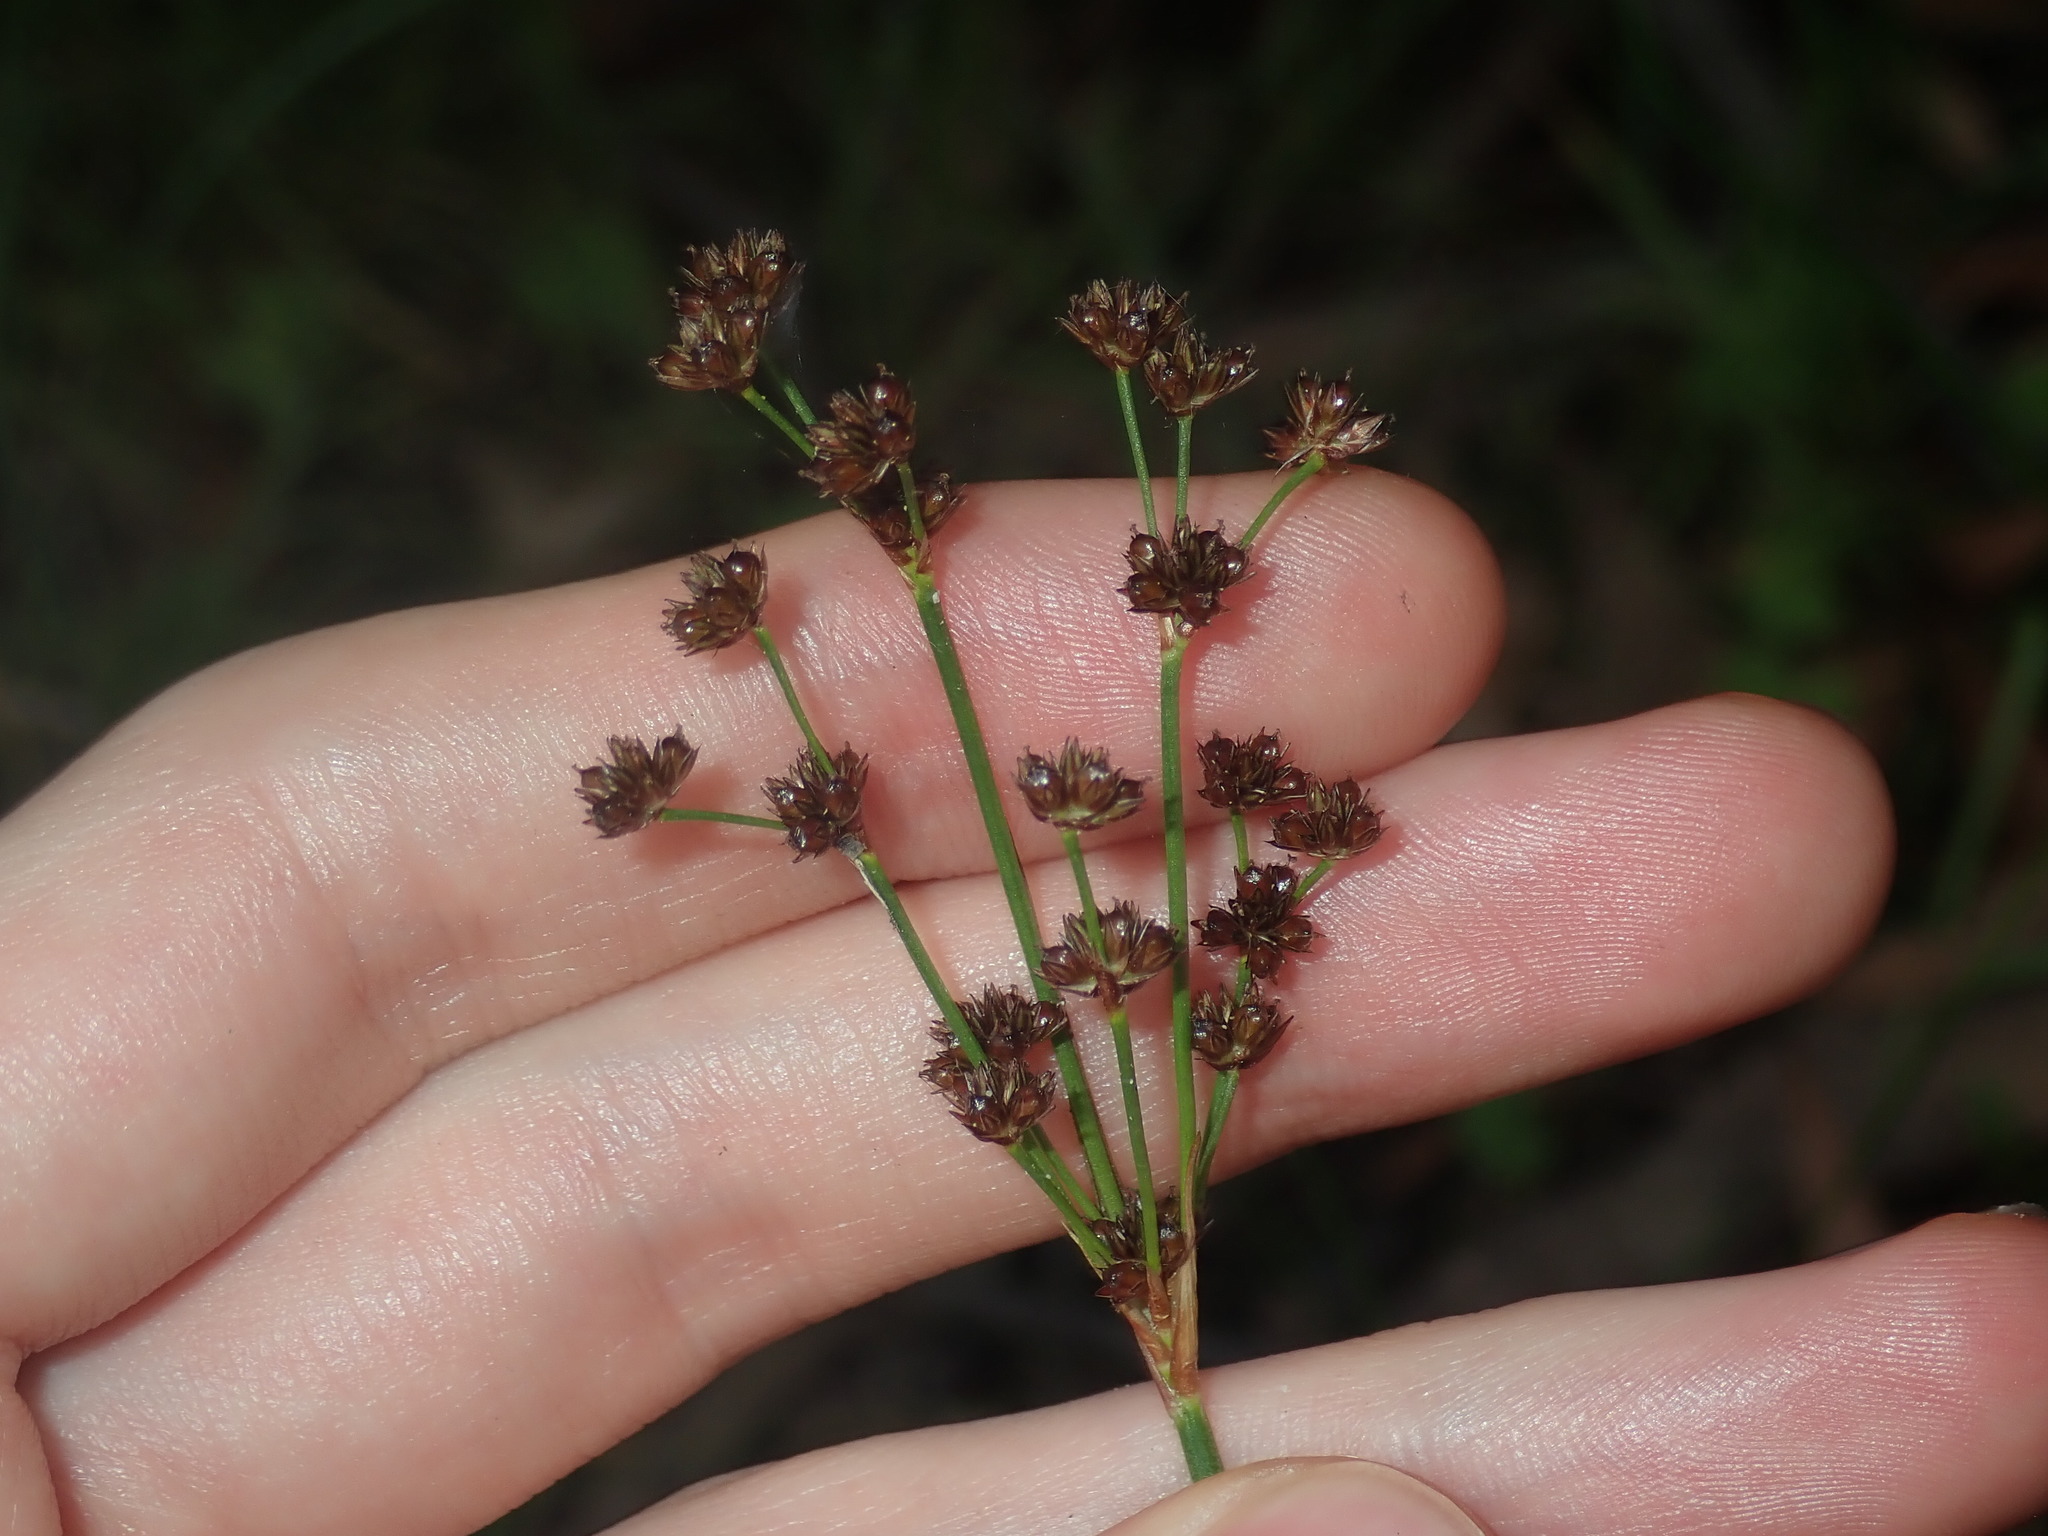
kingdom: Plantae
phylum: Tracheophyta
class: Liliopsida
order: Poales
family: Juncaceae
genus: Juncus
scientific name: Juncus planifolius
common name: Broadleaf rush
